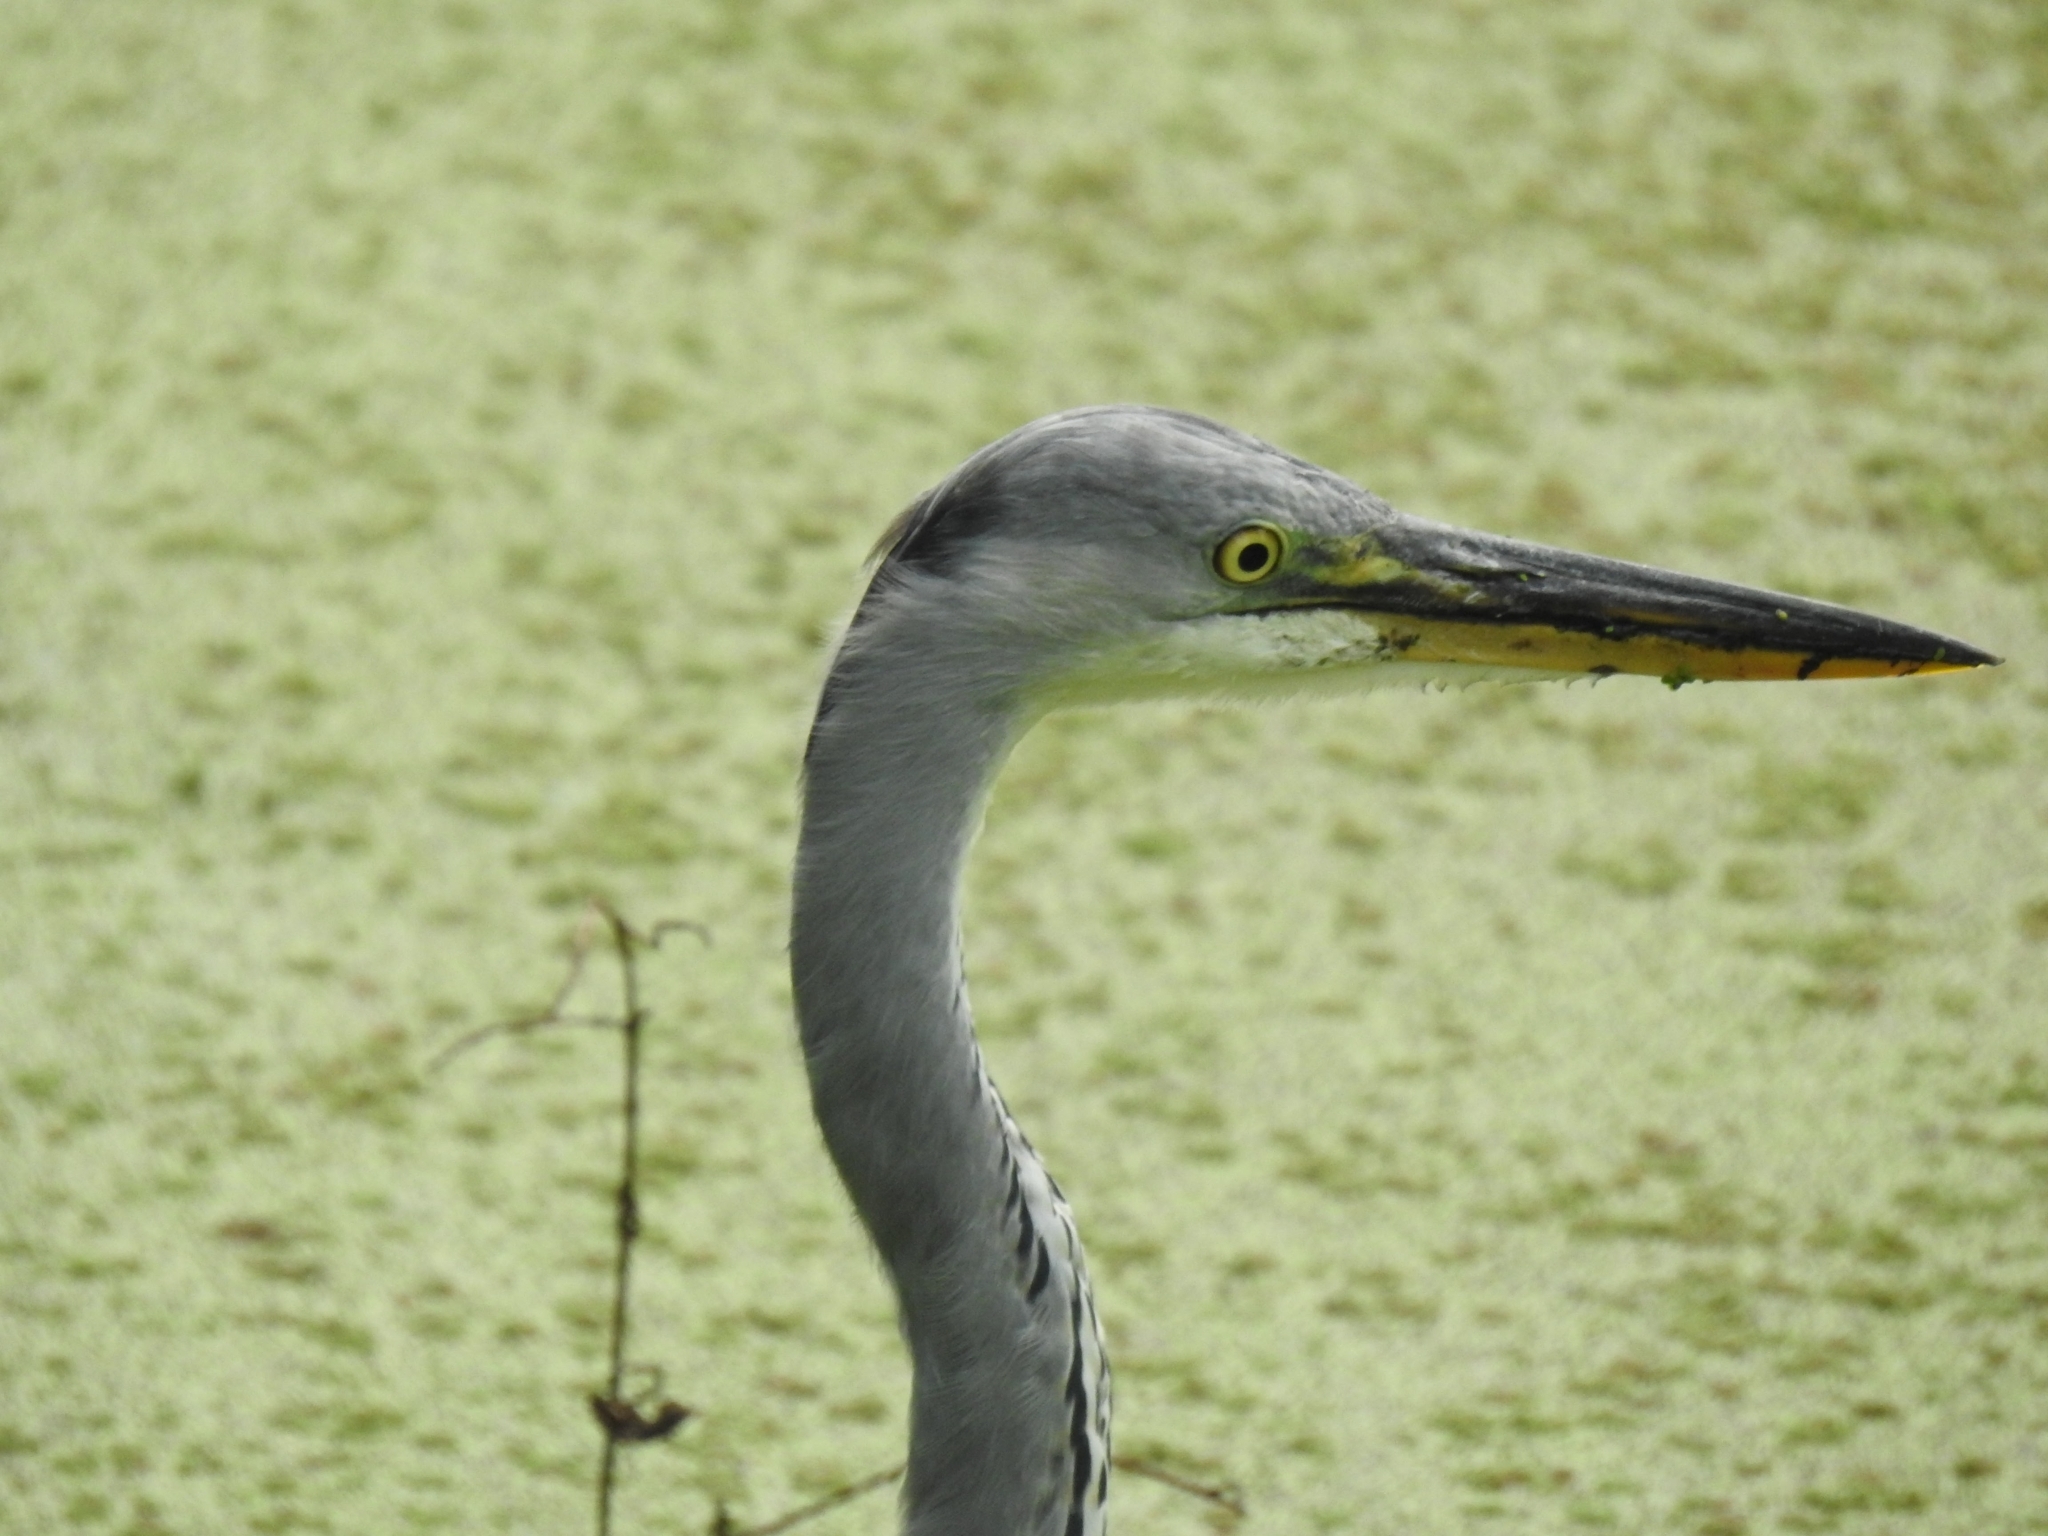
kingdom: Animalia
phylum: Chordata
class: Aves
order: Pelecaniformes
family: Ardeidae
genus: Ardea
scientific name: Ardea cinerea
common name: Grey heron
